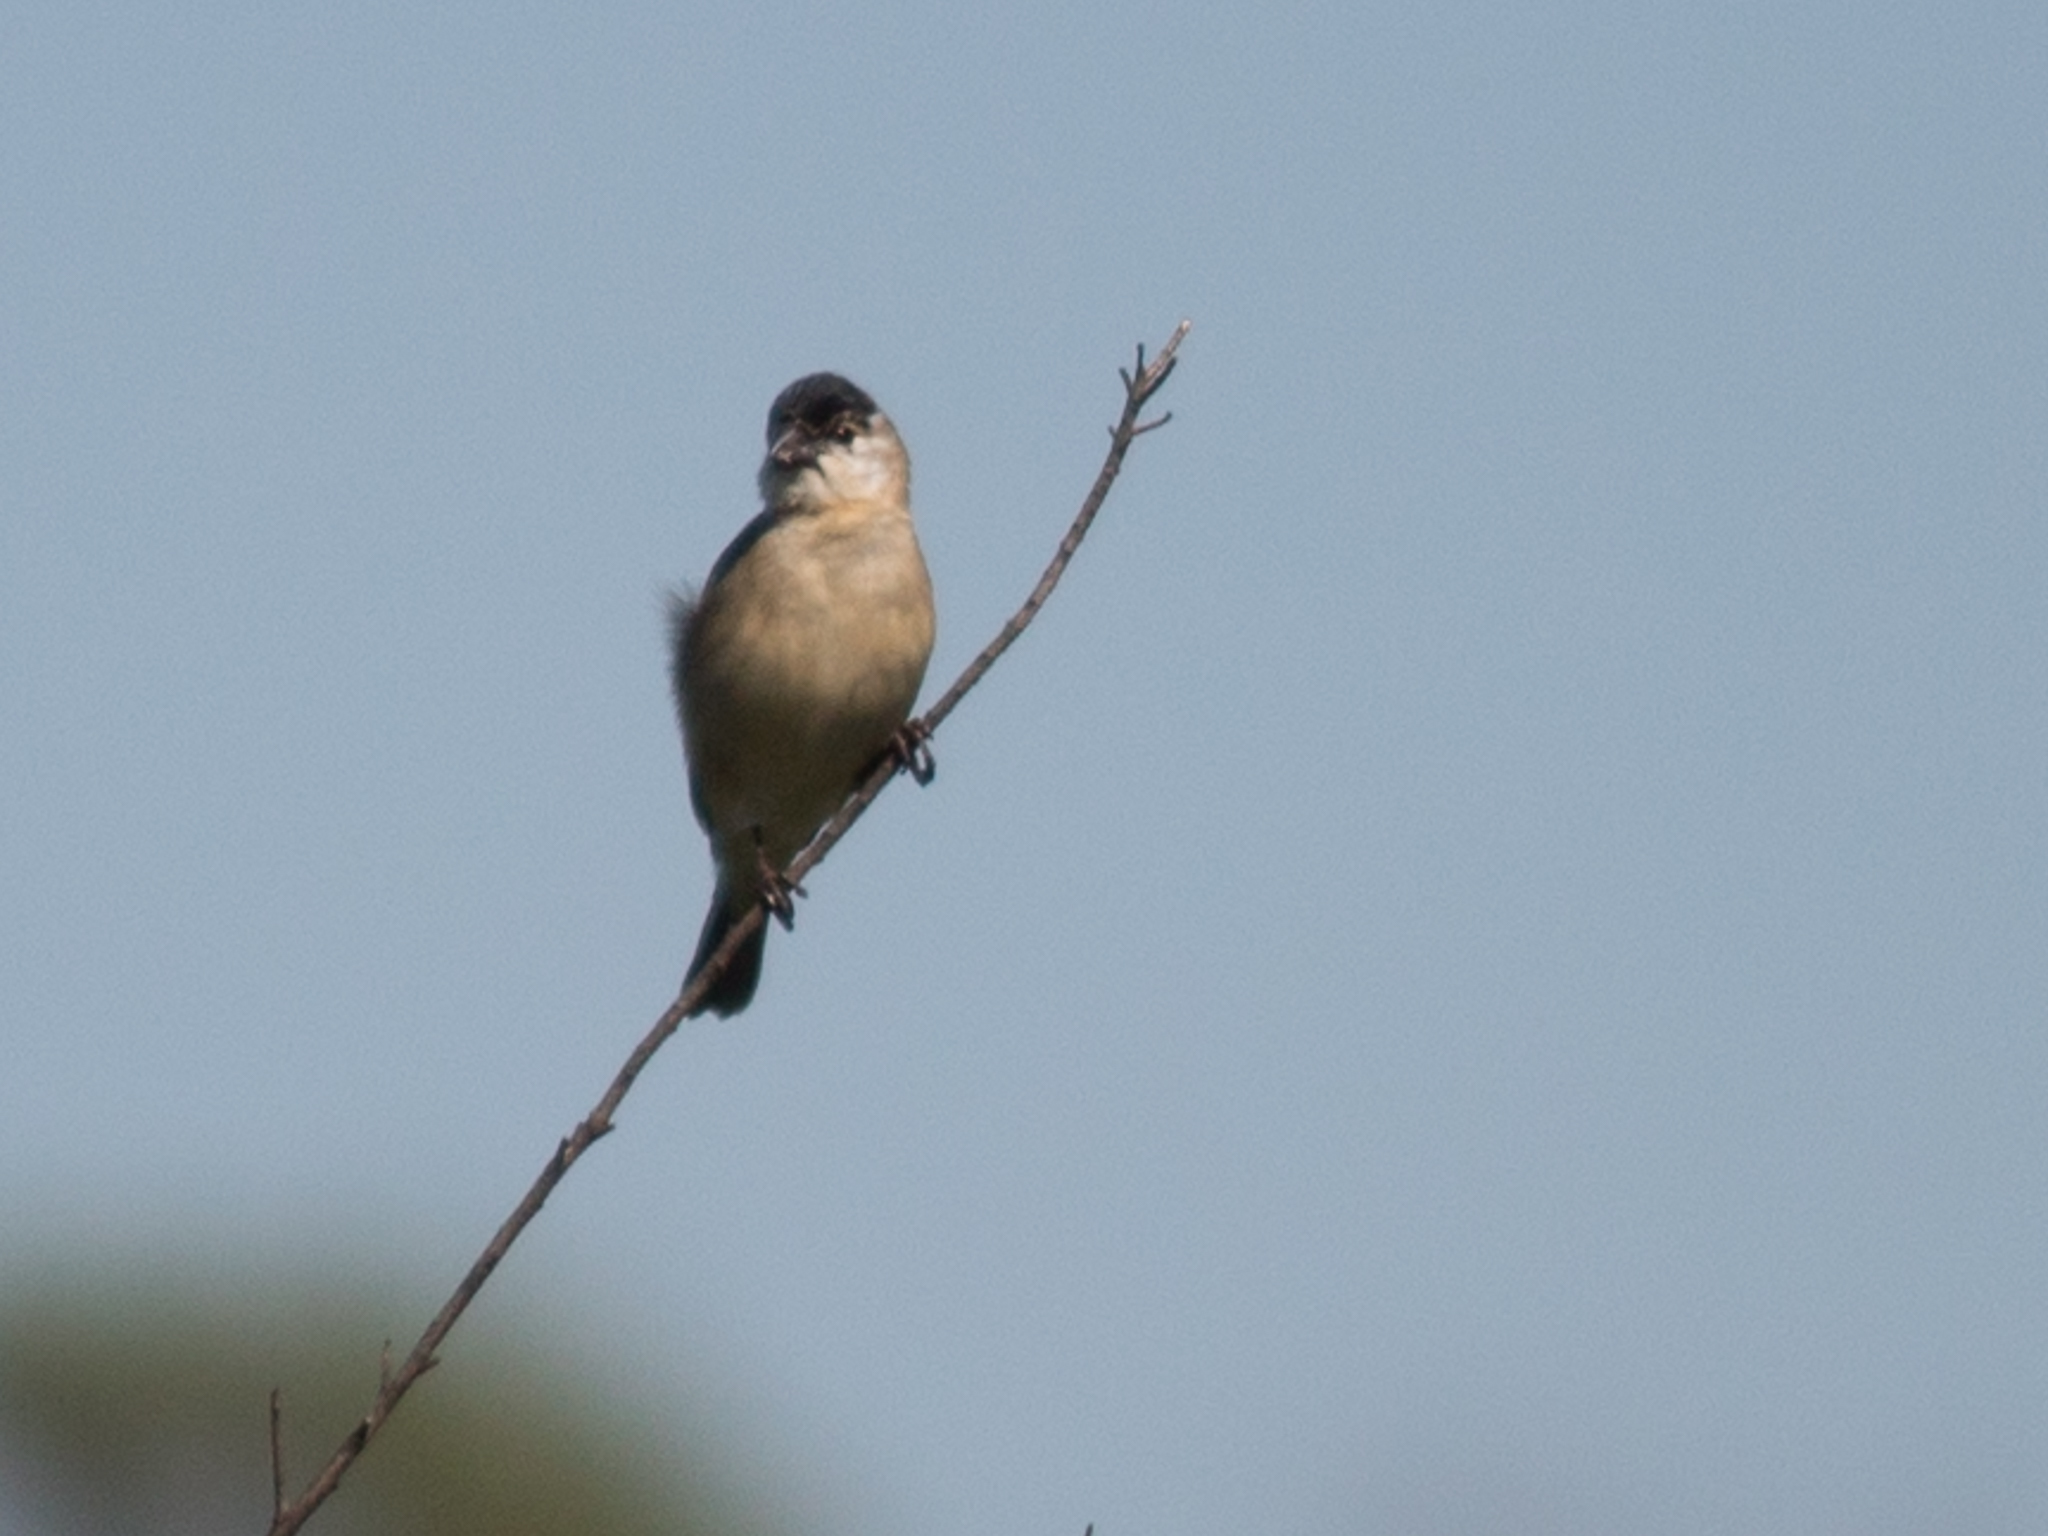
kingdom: Animalia
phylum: Chordata
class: Aves
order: Passeriformes
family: Thraupidae
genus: Sporophila
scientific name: Sporophila pileata
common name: Pearly-bellied seedeater
